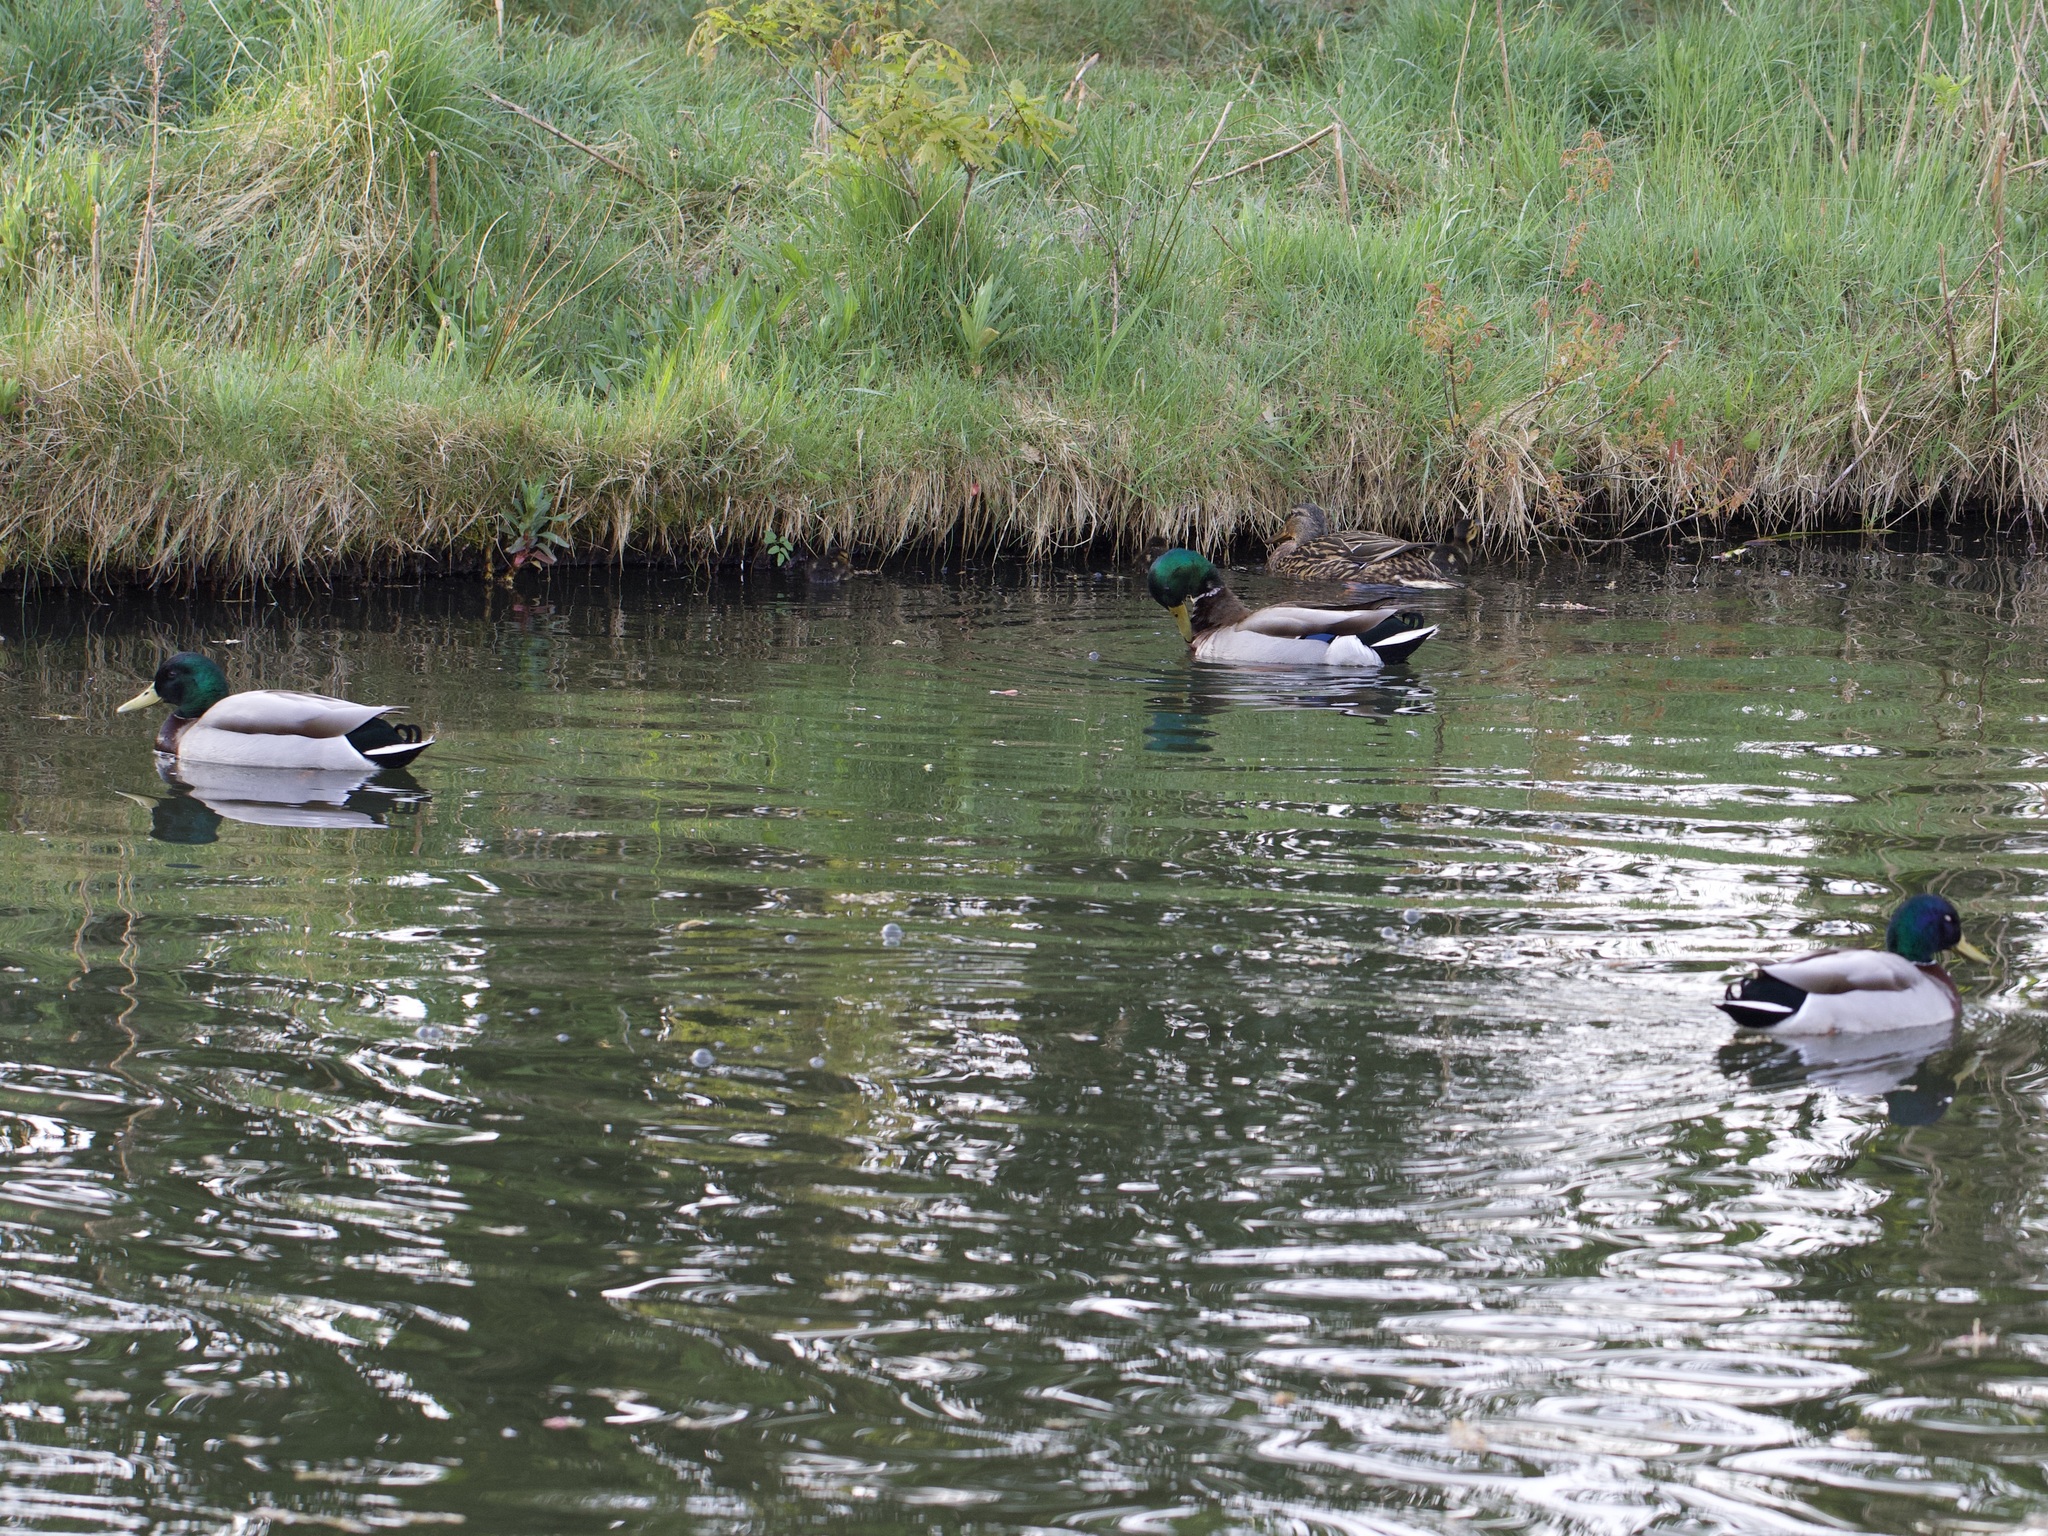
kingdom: Animalia
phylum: Chordata
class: Aves
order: Anseriformes
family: Anatidae
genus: Anas
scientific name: Anas platyrhynchos
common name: Mallard
